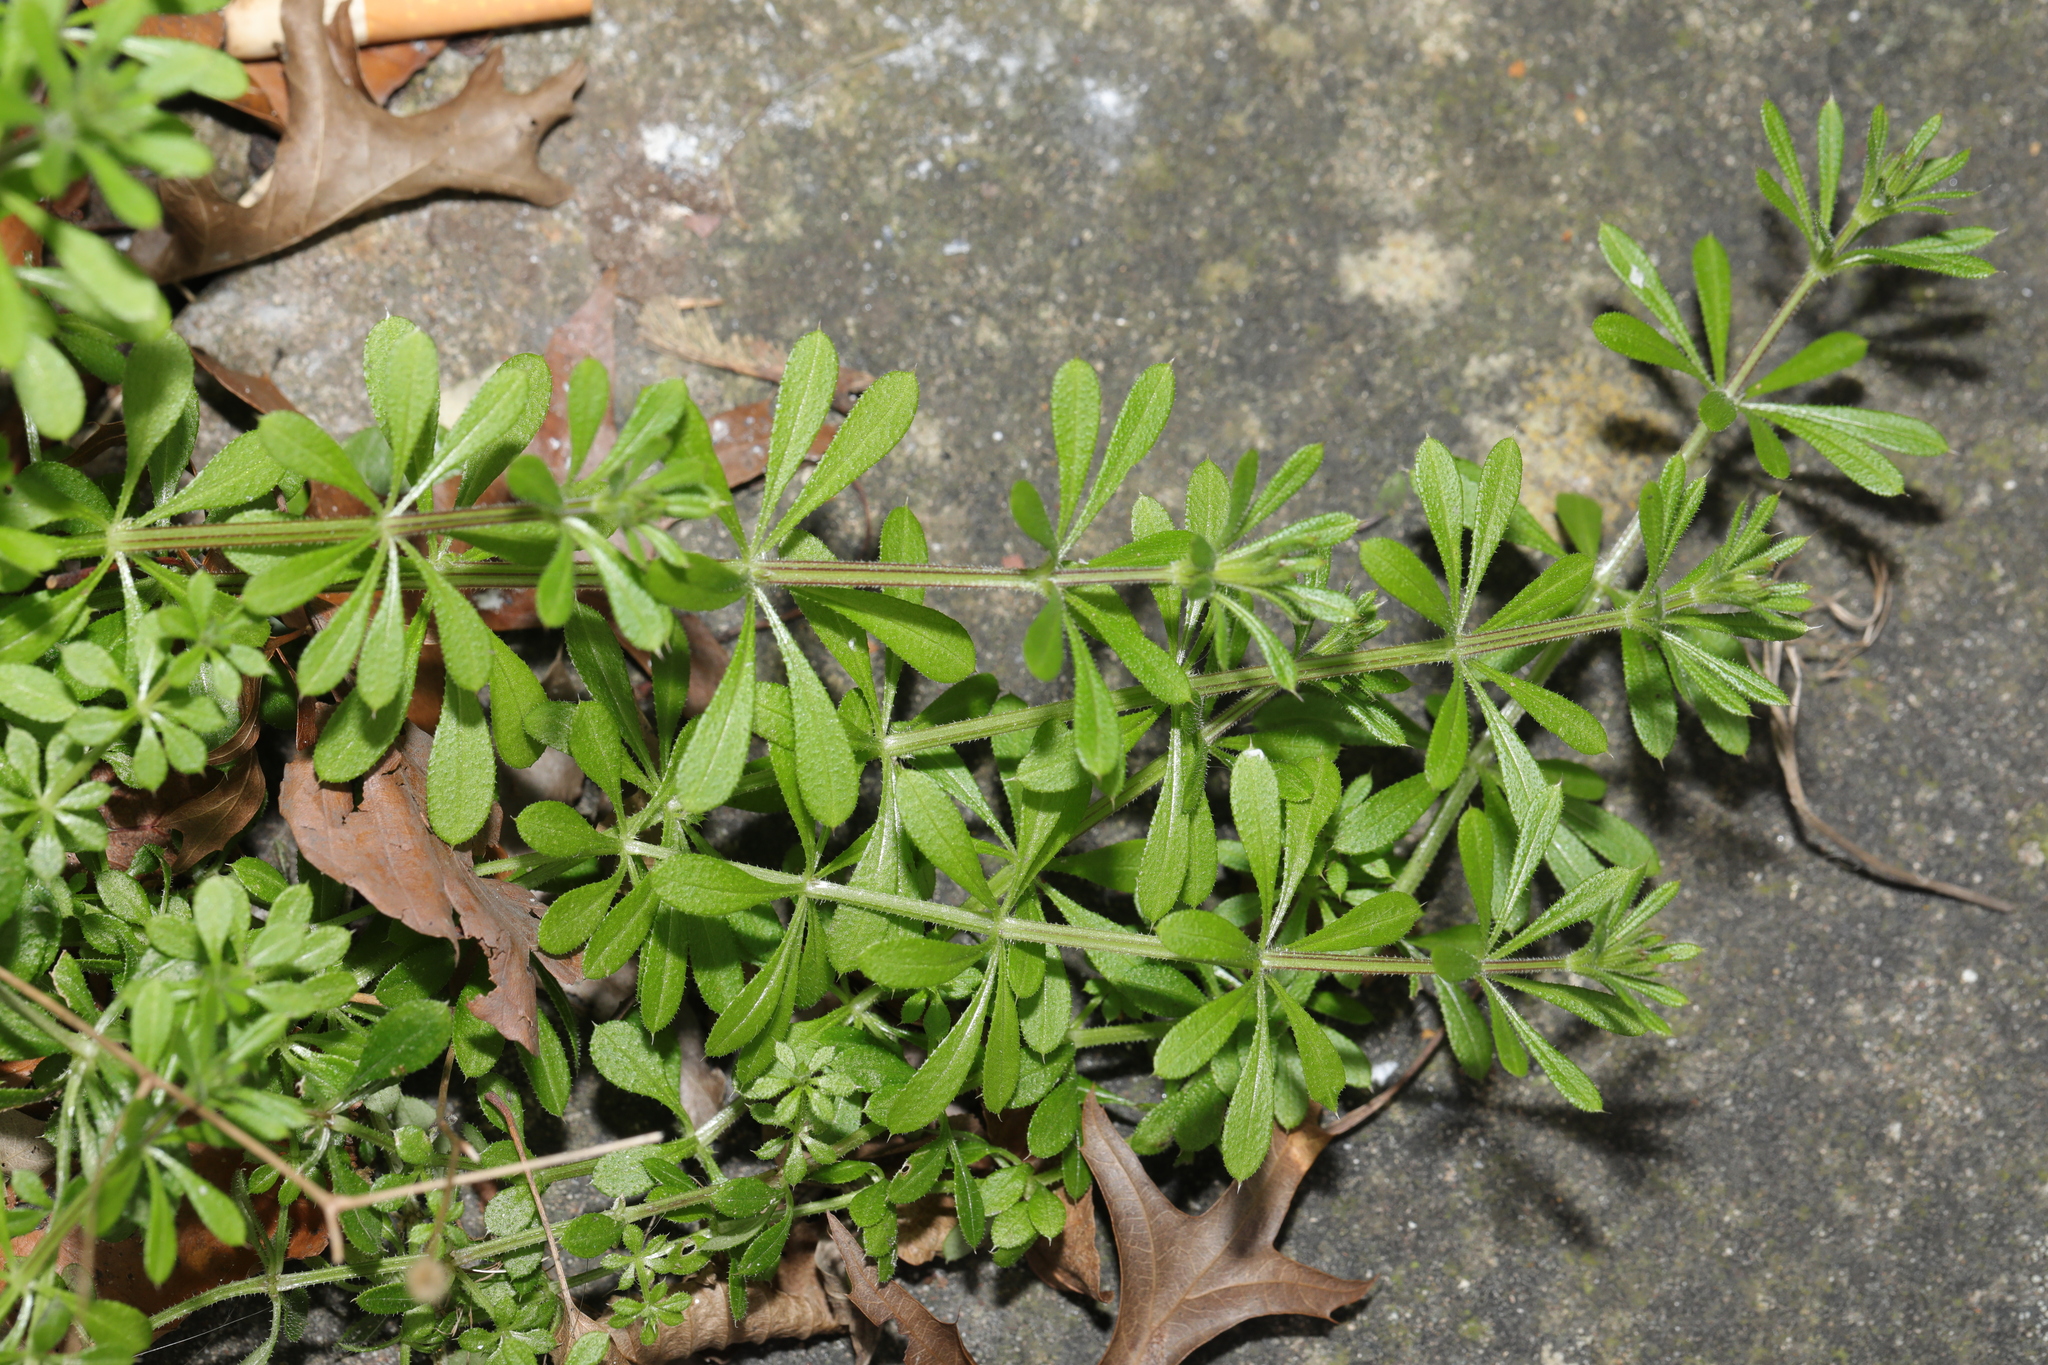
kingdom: Plantae
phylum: Tracheophyta
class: Magnoliopsida
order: Gentianales
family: Rubiaceae
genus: Galium
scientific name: Galium aparine
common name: Cleavers
